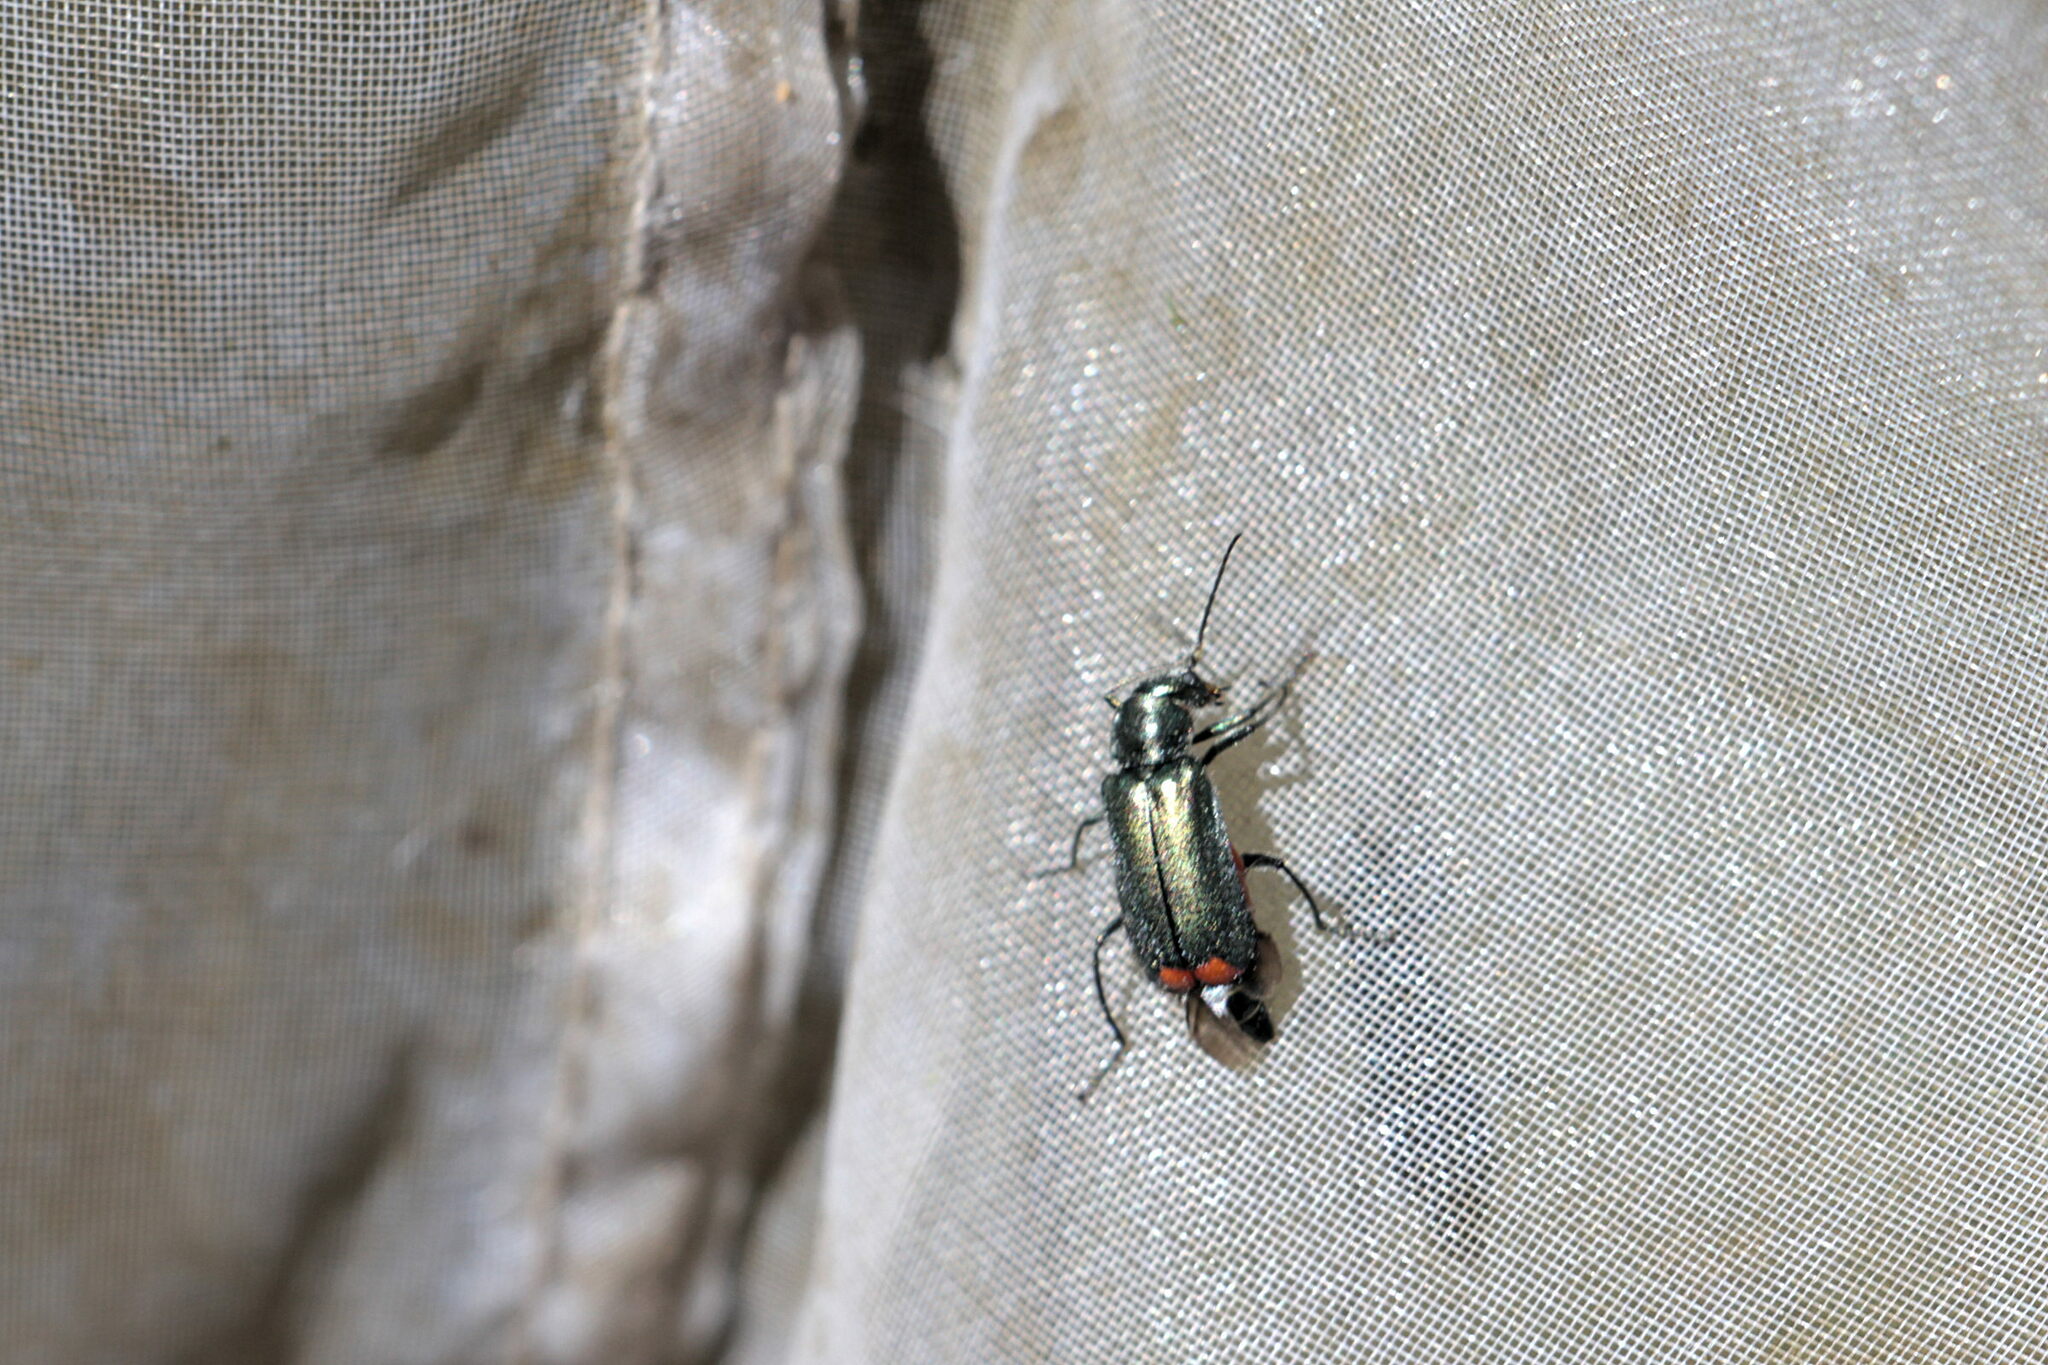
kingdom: Animalia
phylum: Arthropoda
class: Insecta
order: Coleoptera
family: Melyridae
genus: Malachius
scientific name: Malachius bipustulatus
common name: Malachite beetle
